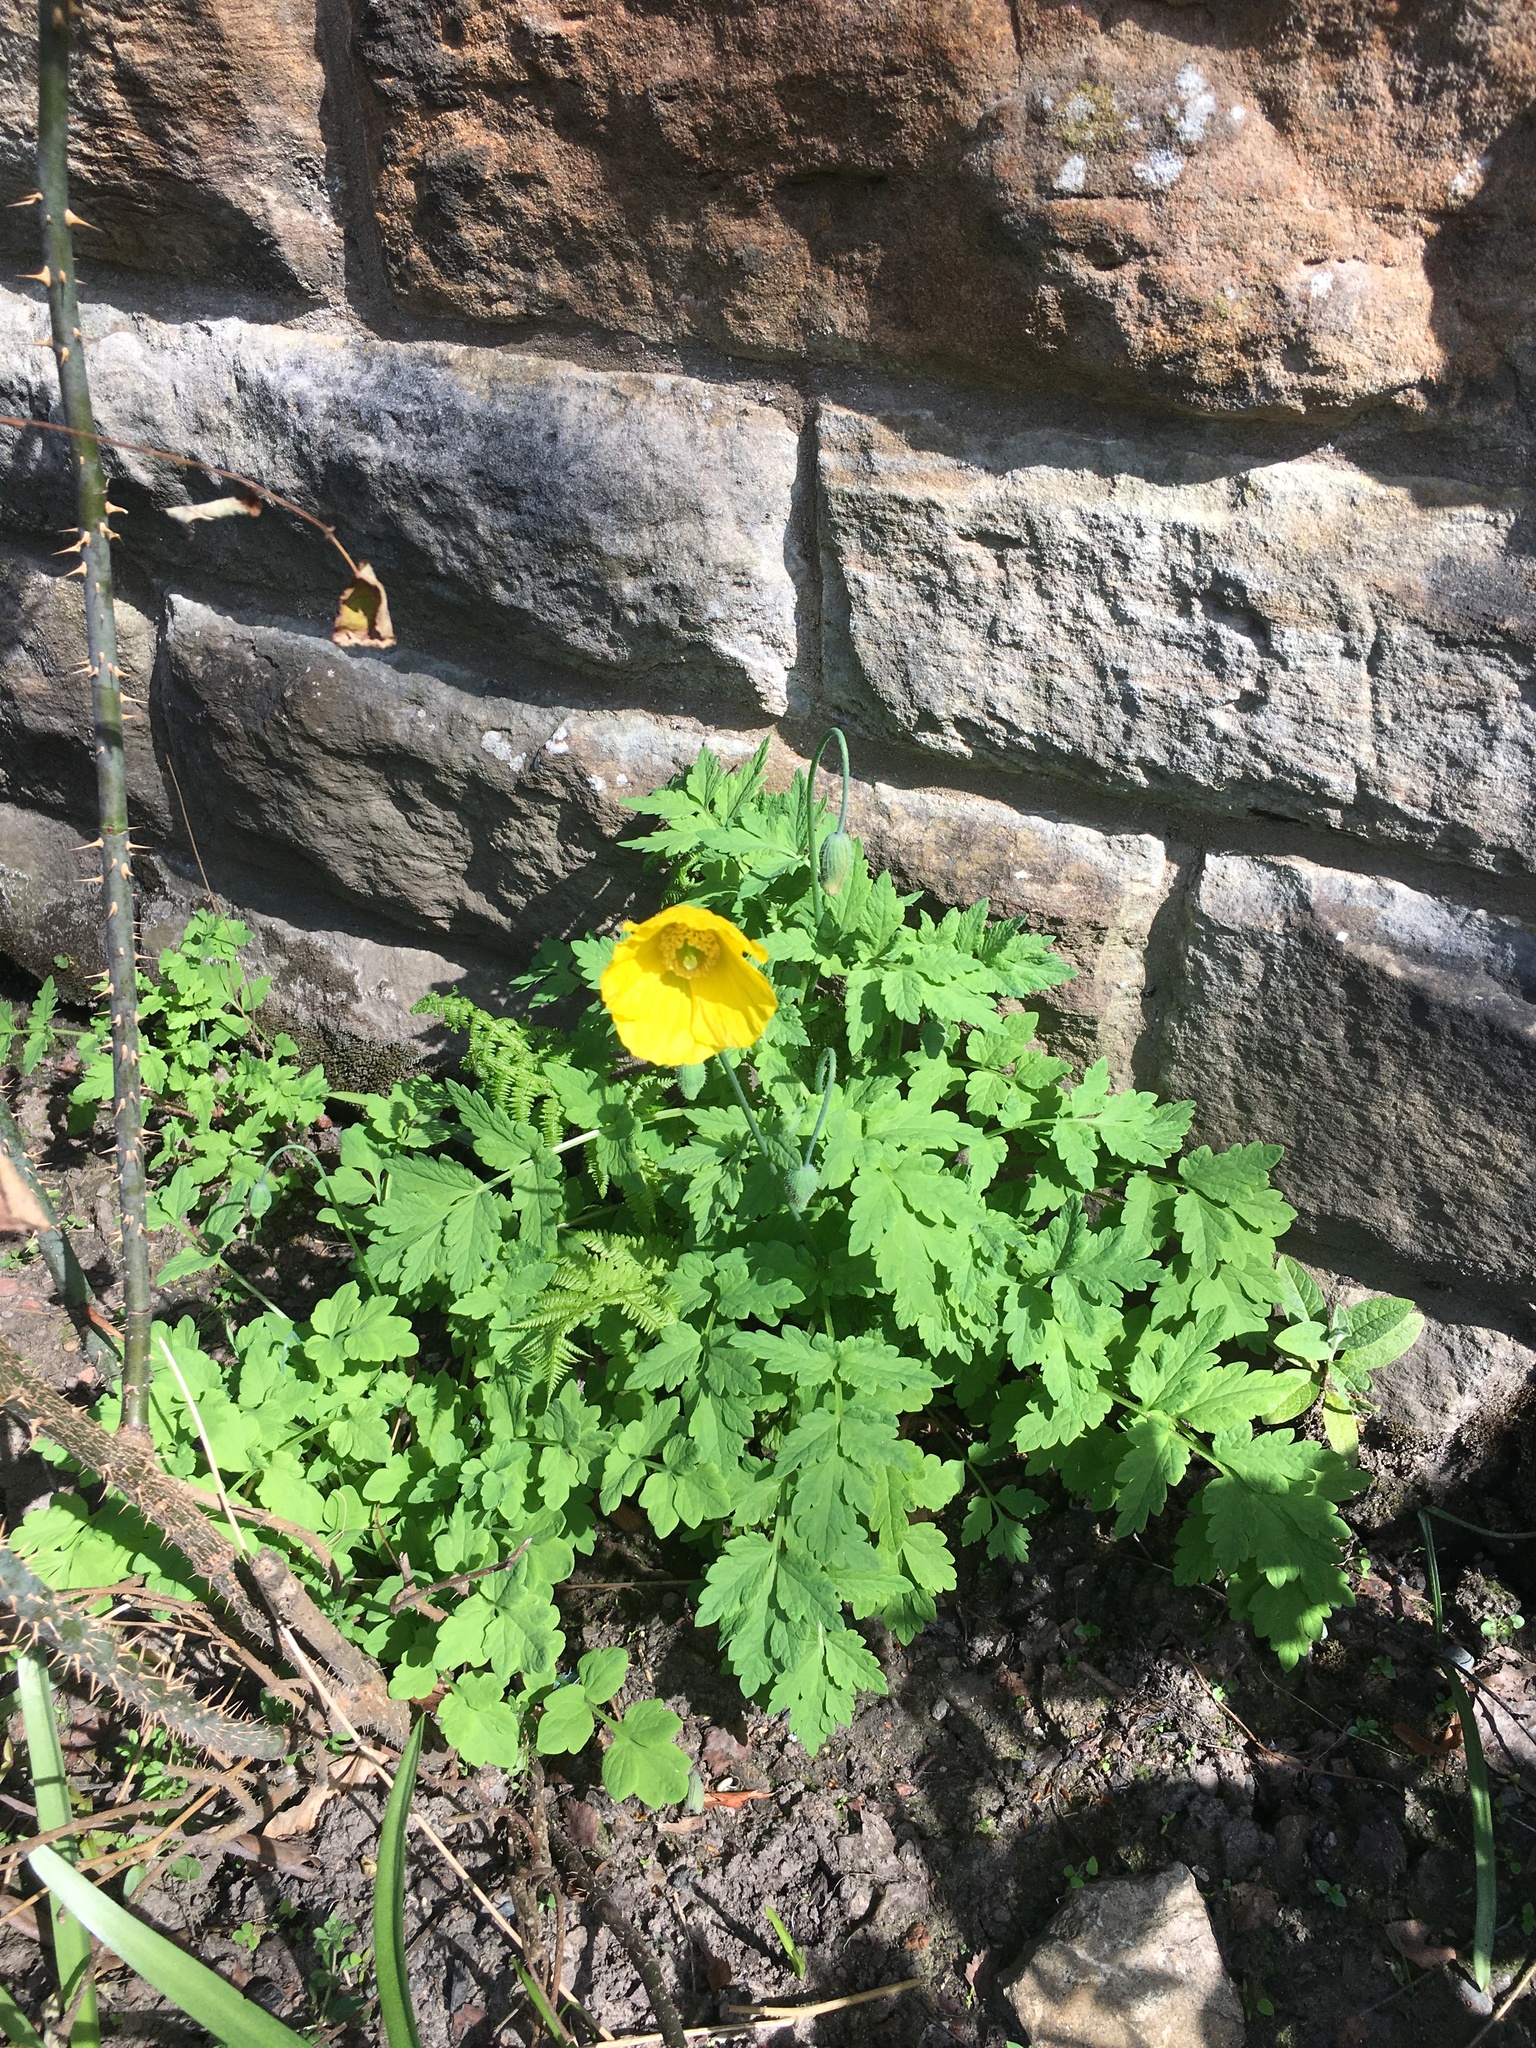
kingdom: Plantae
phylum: Tracheophyta
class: Magnoliopsida
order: Ranunculales
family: Papaveraceae
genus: Papaver
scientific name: Papaver cambricum
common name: Poppy
